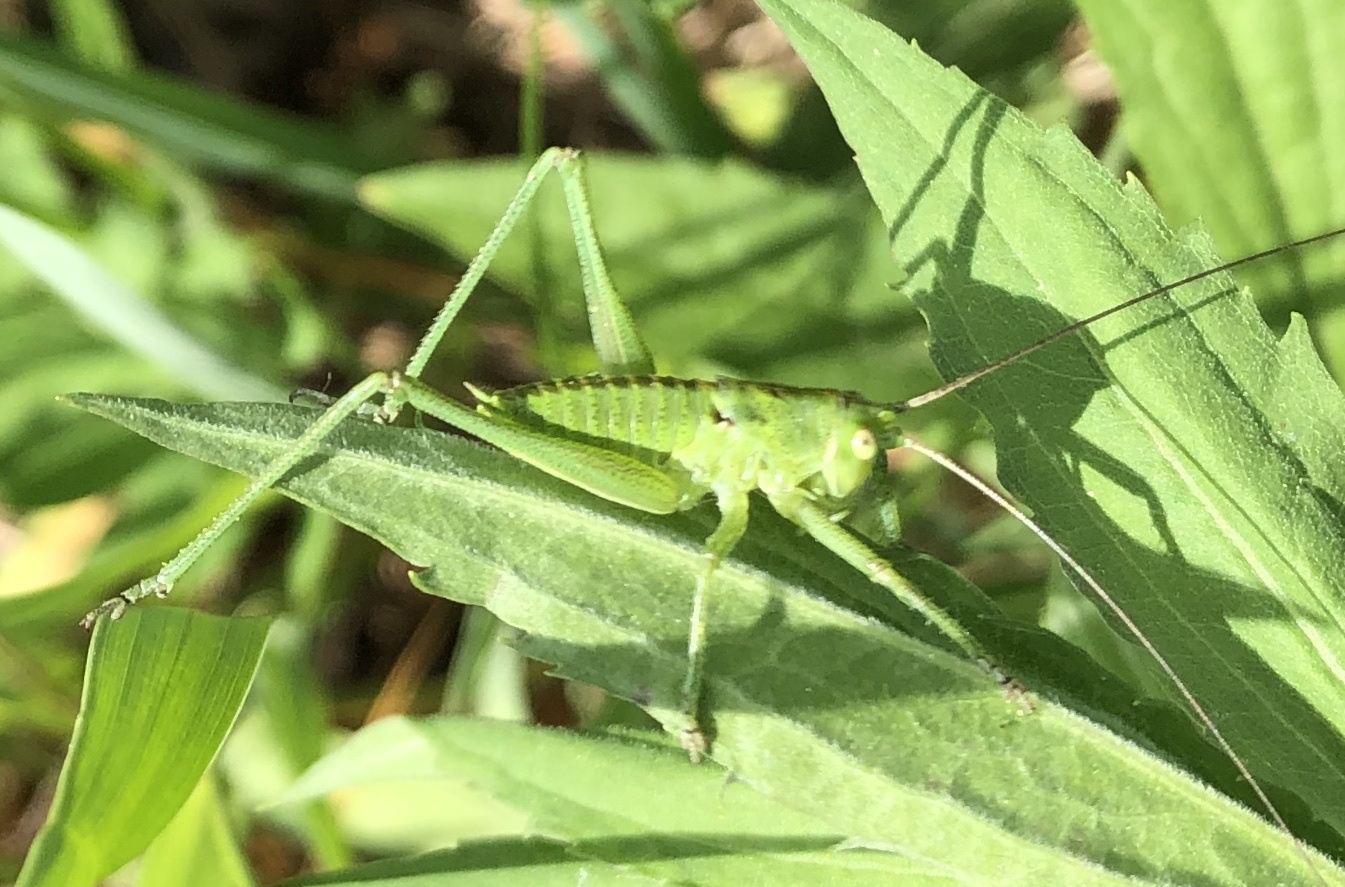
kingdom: Animalia
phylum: Arthropoda
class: Insecta
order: Orthoptera
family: Tettigoniidae
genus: Tettigonia
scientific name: Tettigonia viridissima
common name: Great green bush-cricket
